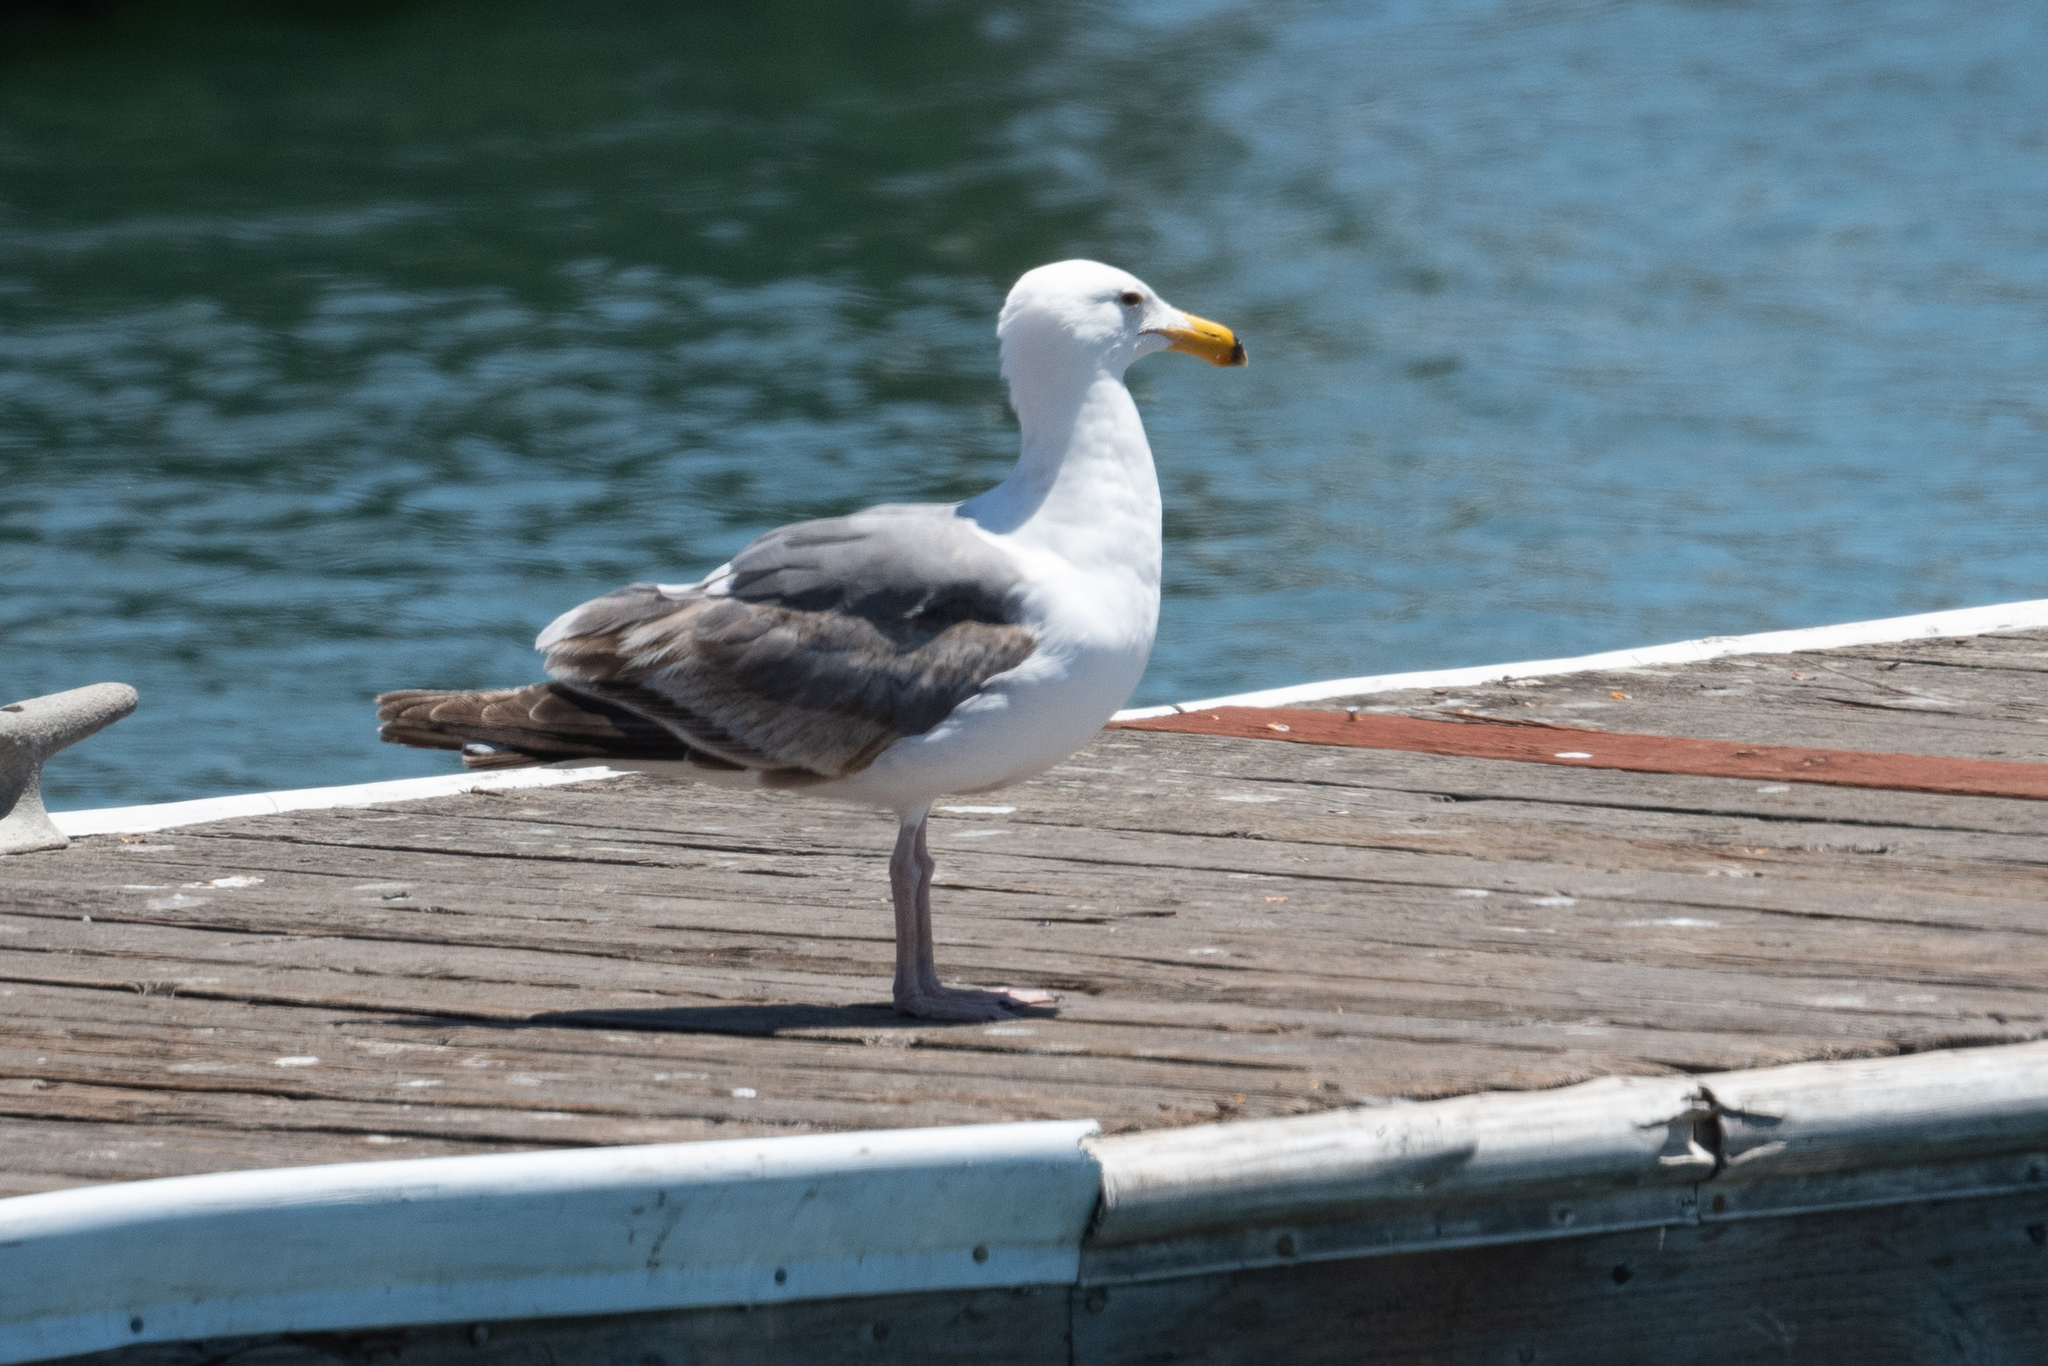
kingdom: Animalia
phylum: Chordata
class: Aves
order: Charadriiformes
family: Laridae
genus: Larus
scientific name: Larus occidentalis
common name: Western gull
